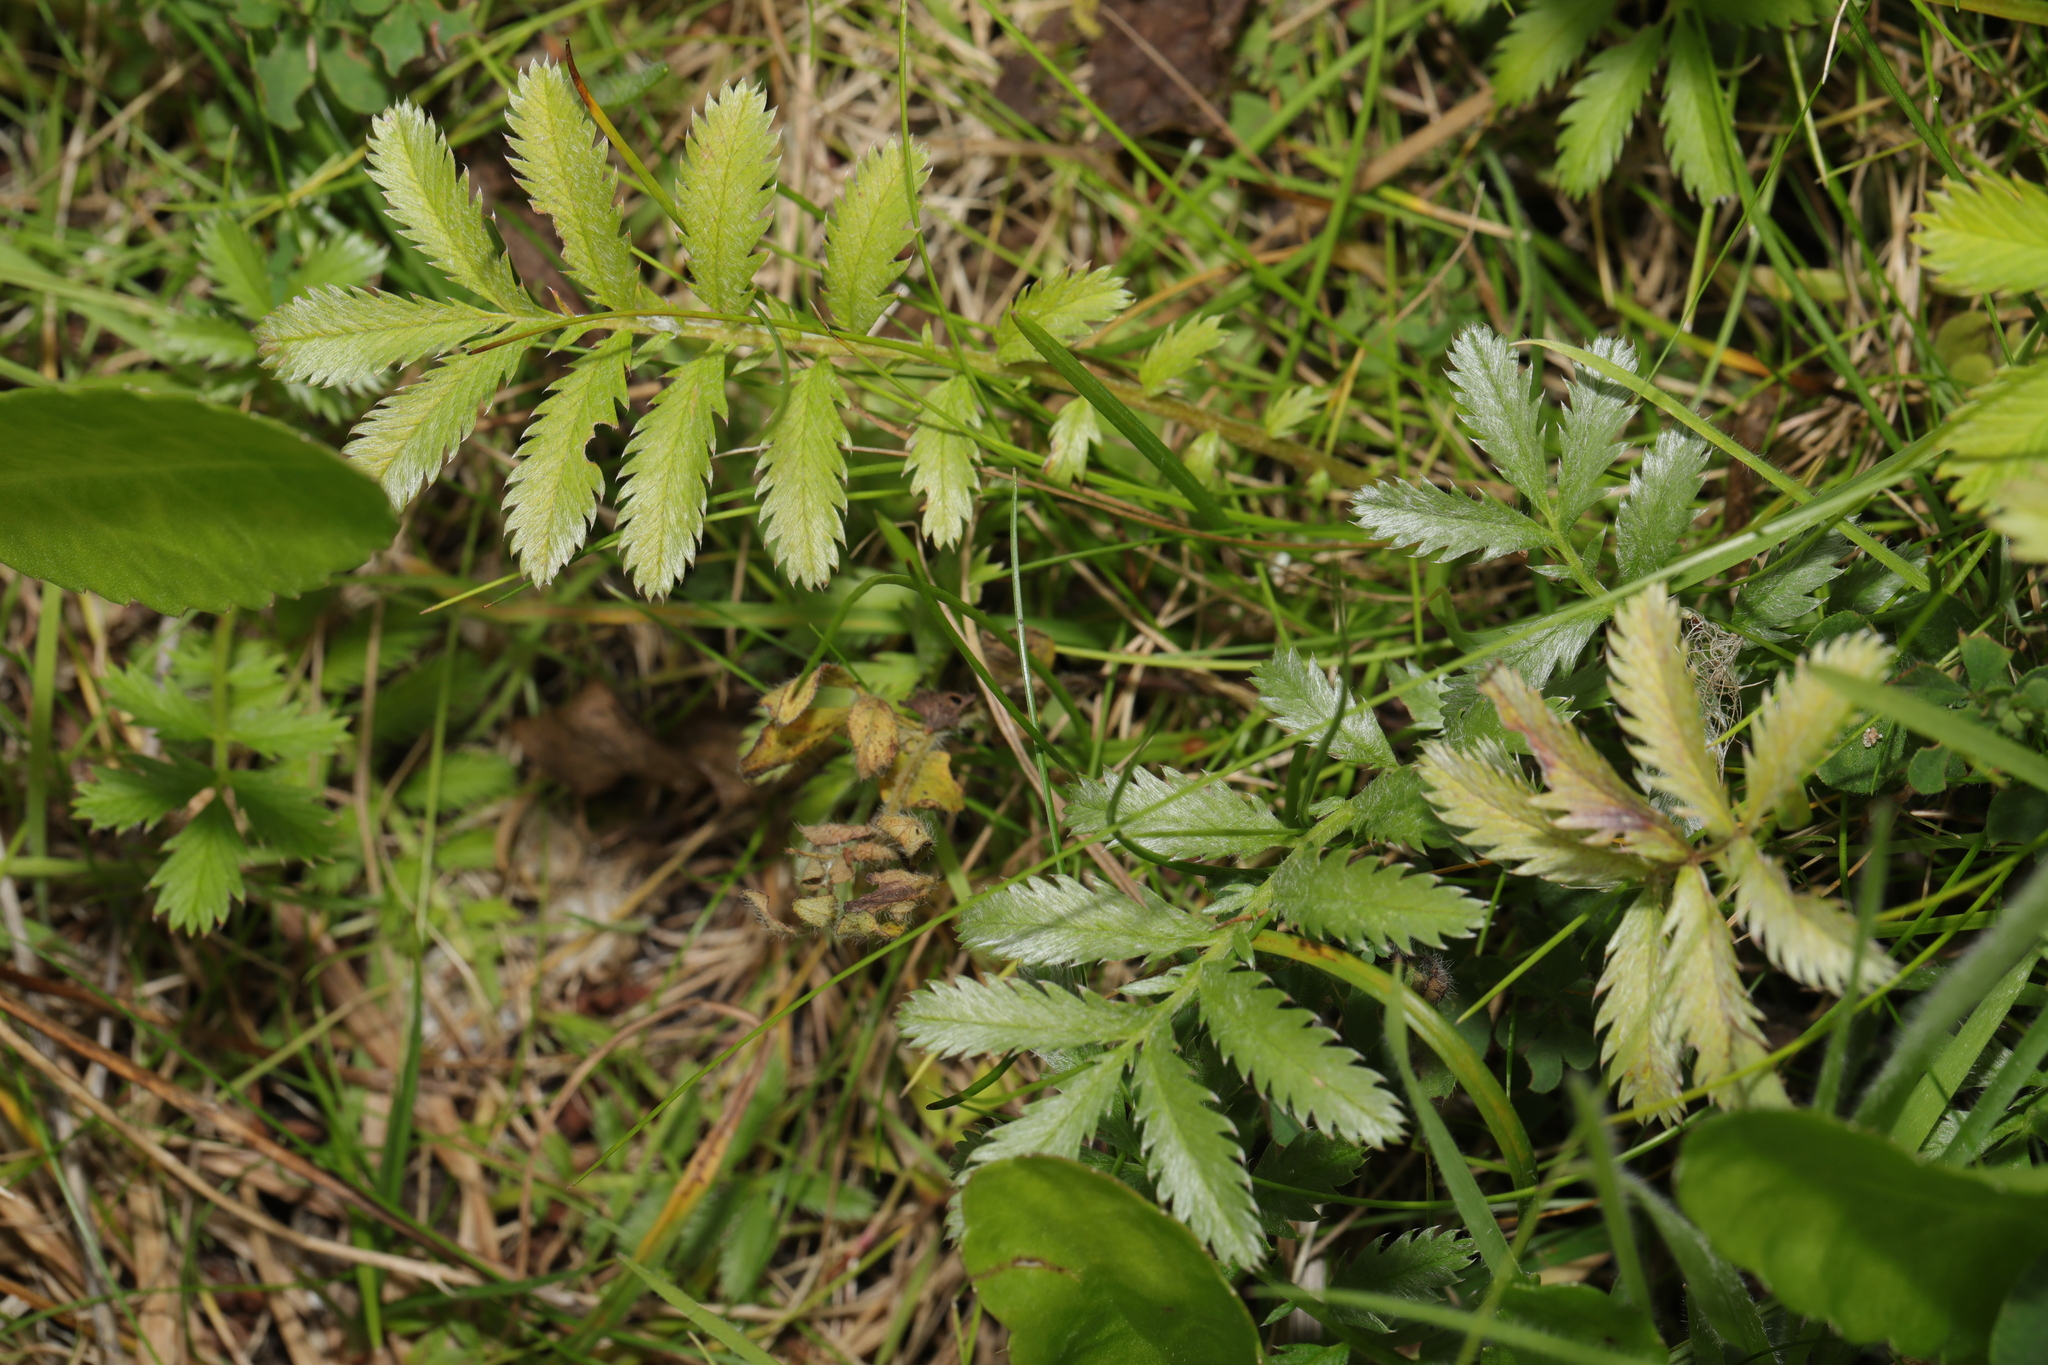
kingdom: Plantae
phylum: Tracheophyta
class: Magnoliopsida
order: Rosales
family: Rosaceae
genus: Argentina
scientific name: Argentina anserina
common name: Common silverweed
